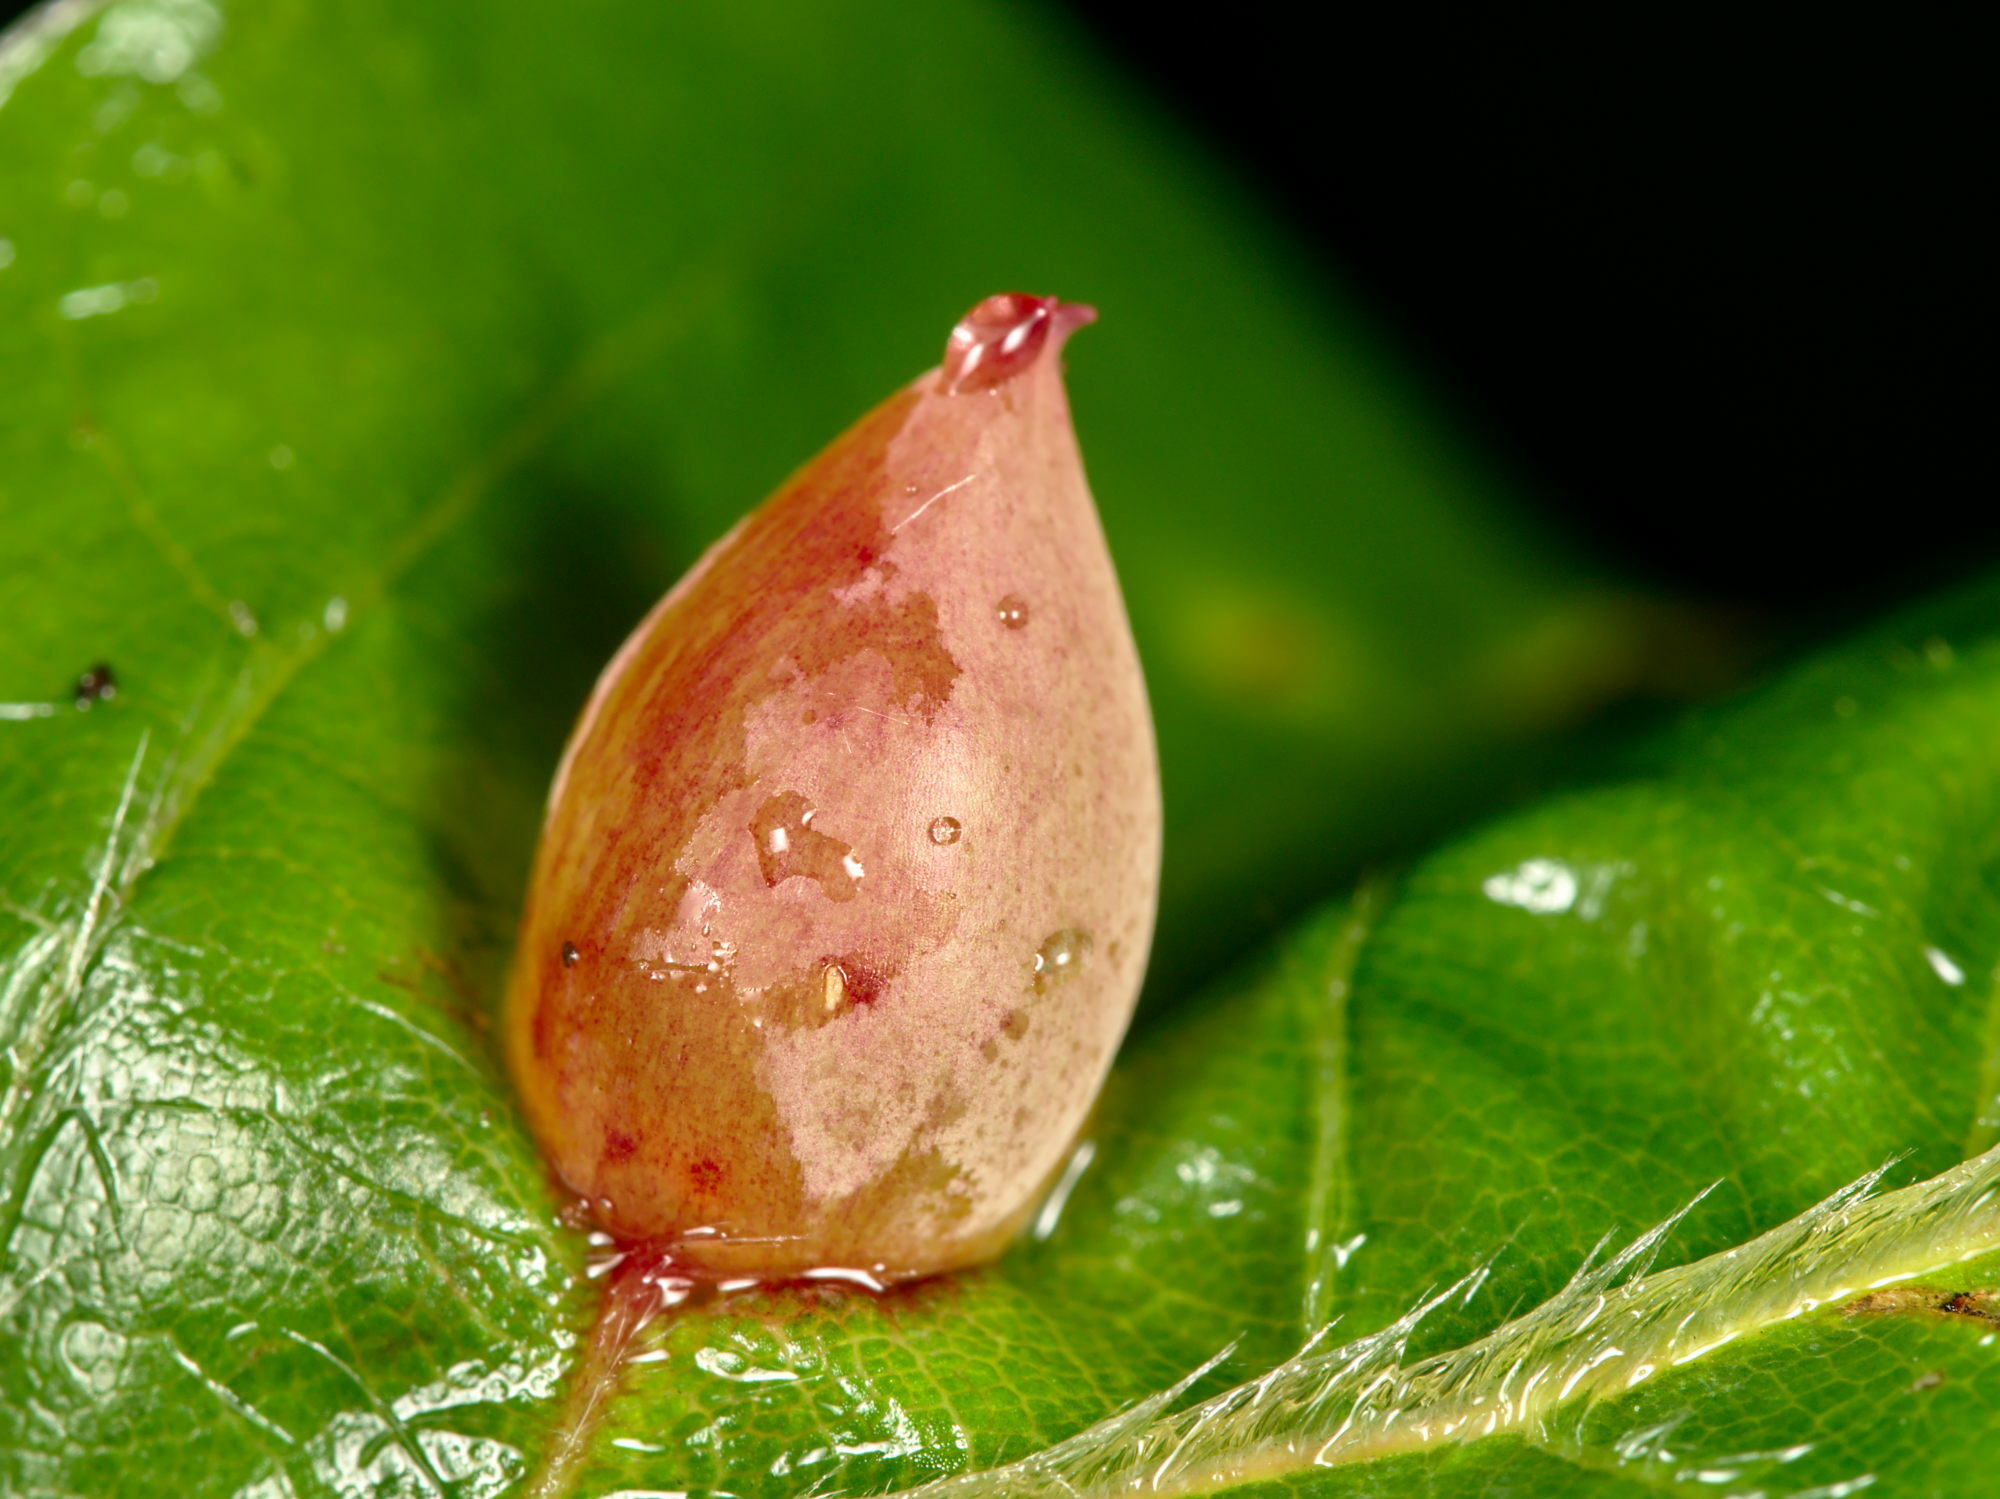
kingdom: Animalia
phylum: Arthropoda
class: Insecta
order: Diptera
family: Cecidomyiidae
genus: Mikiola
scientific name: Mikiola fagi
